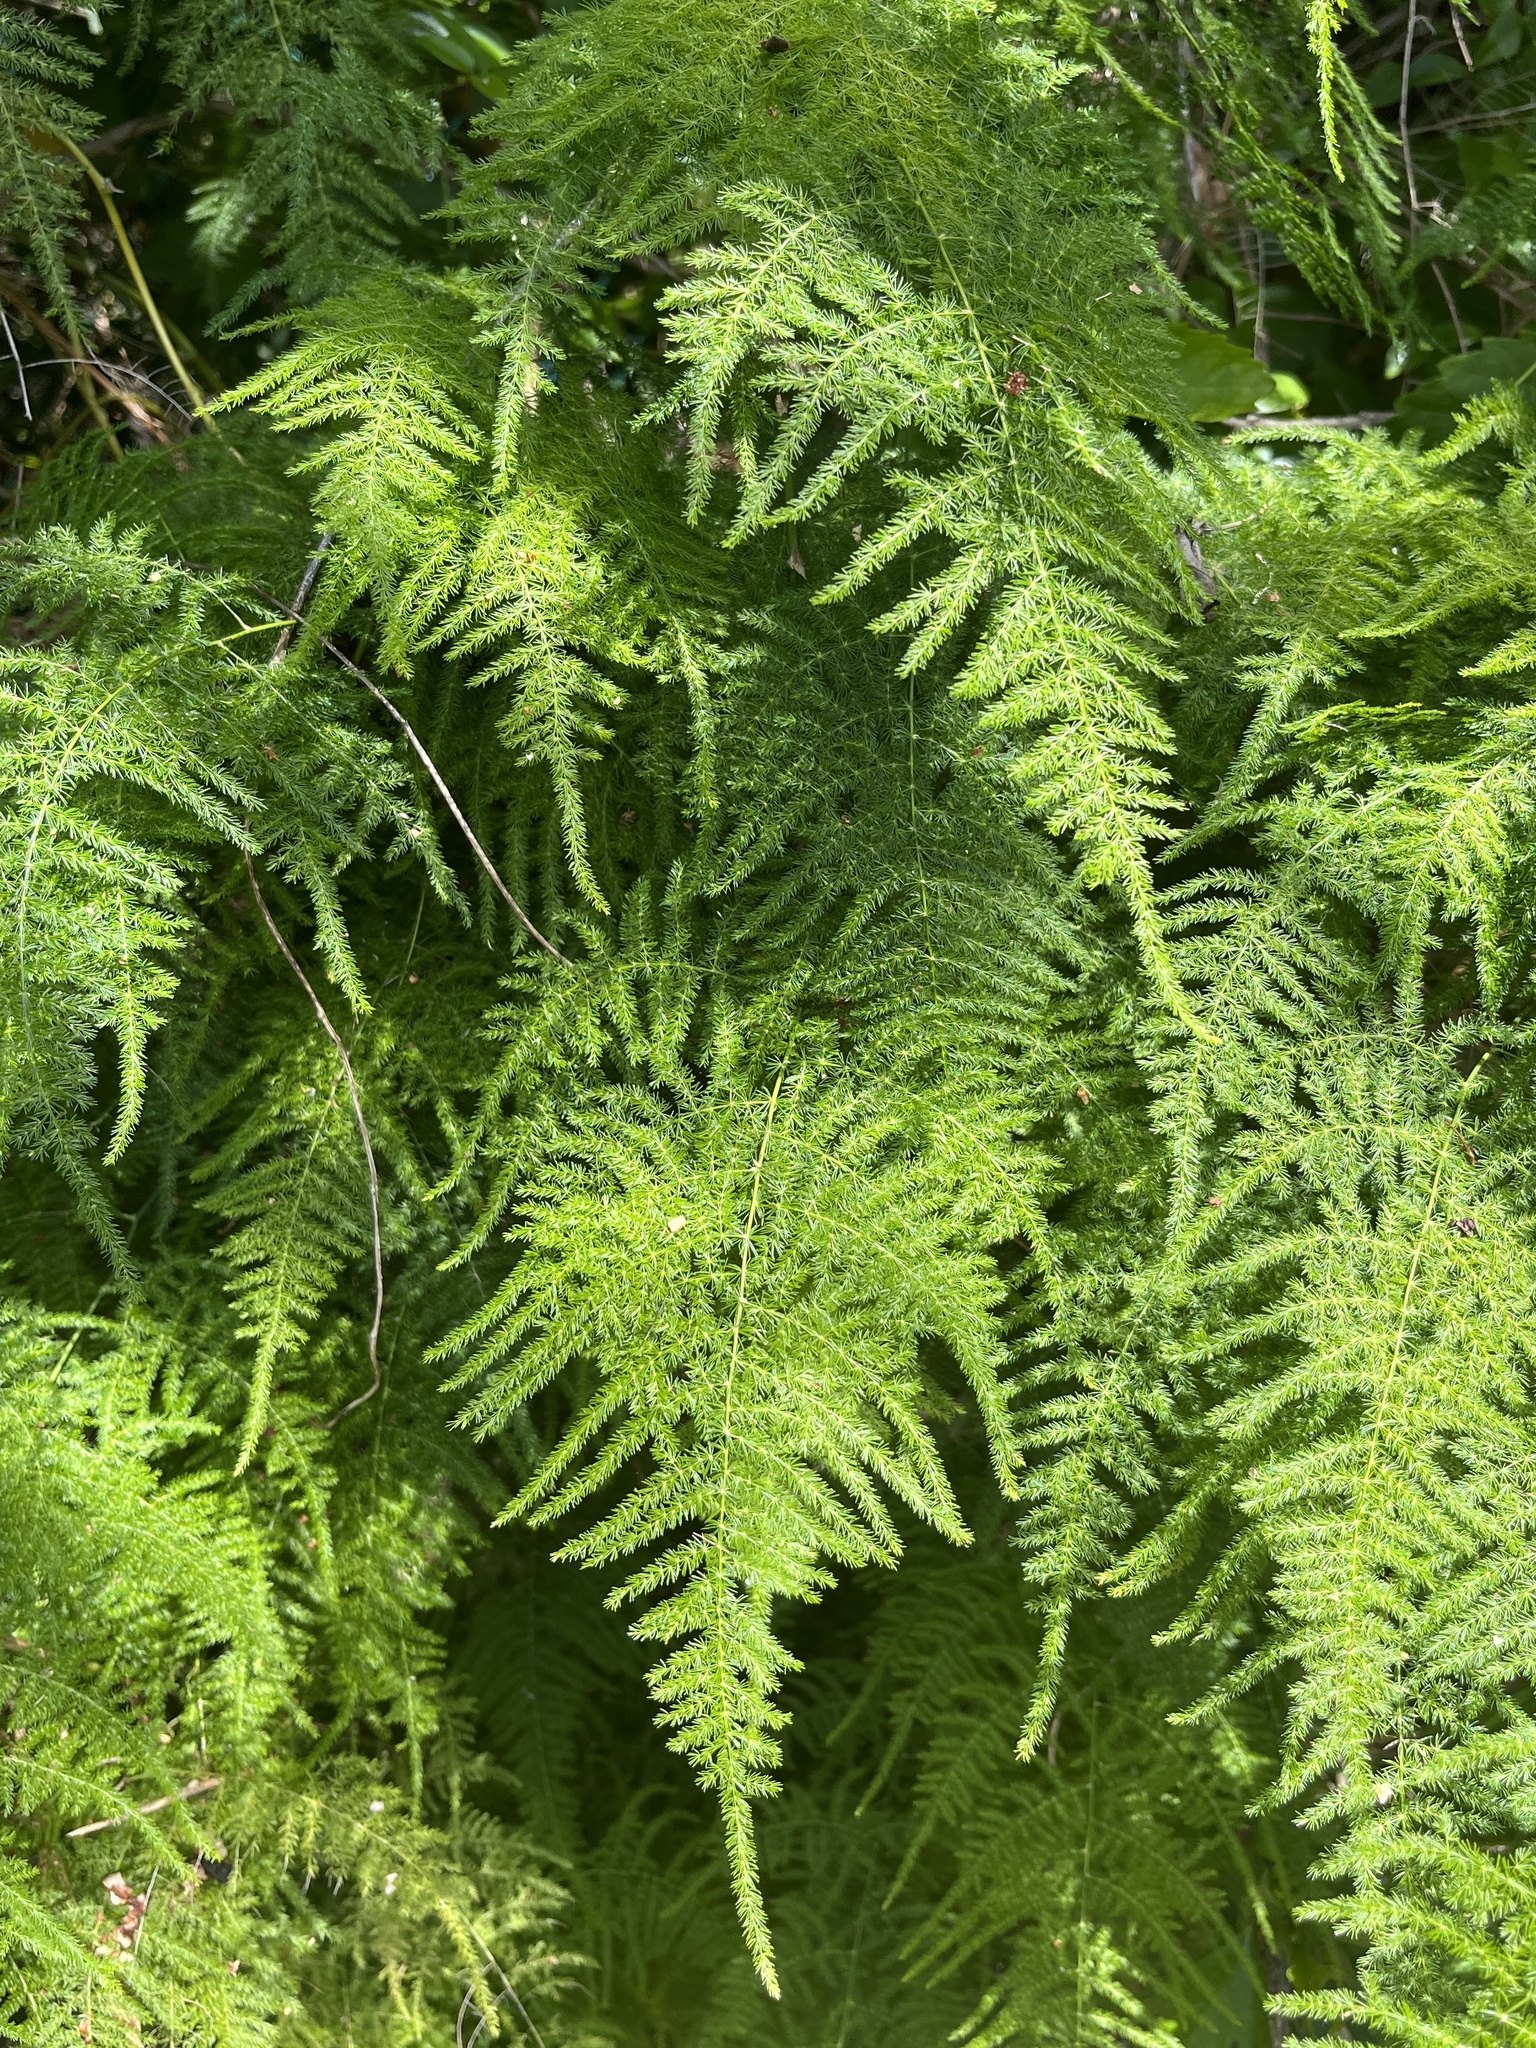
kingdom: Plantae
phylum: Tracheophyta
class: Liliopsida
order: Asparagales
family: Asparagaceae
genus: Asparagus
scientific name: Asparagus setaceus
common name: Common asparagus fern
